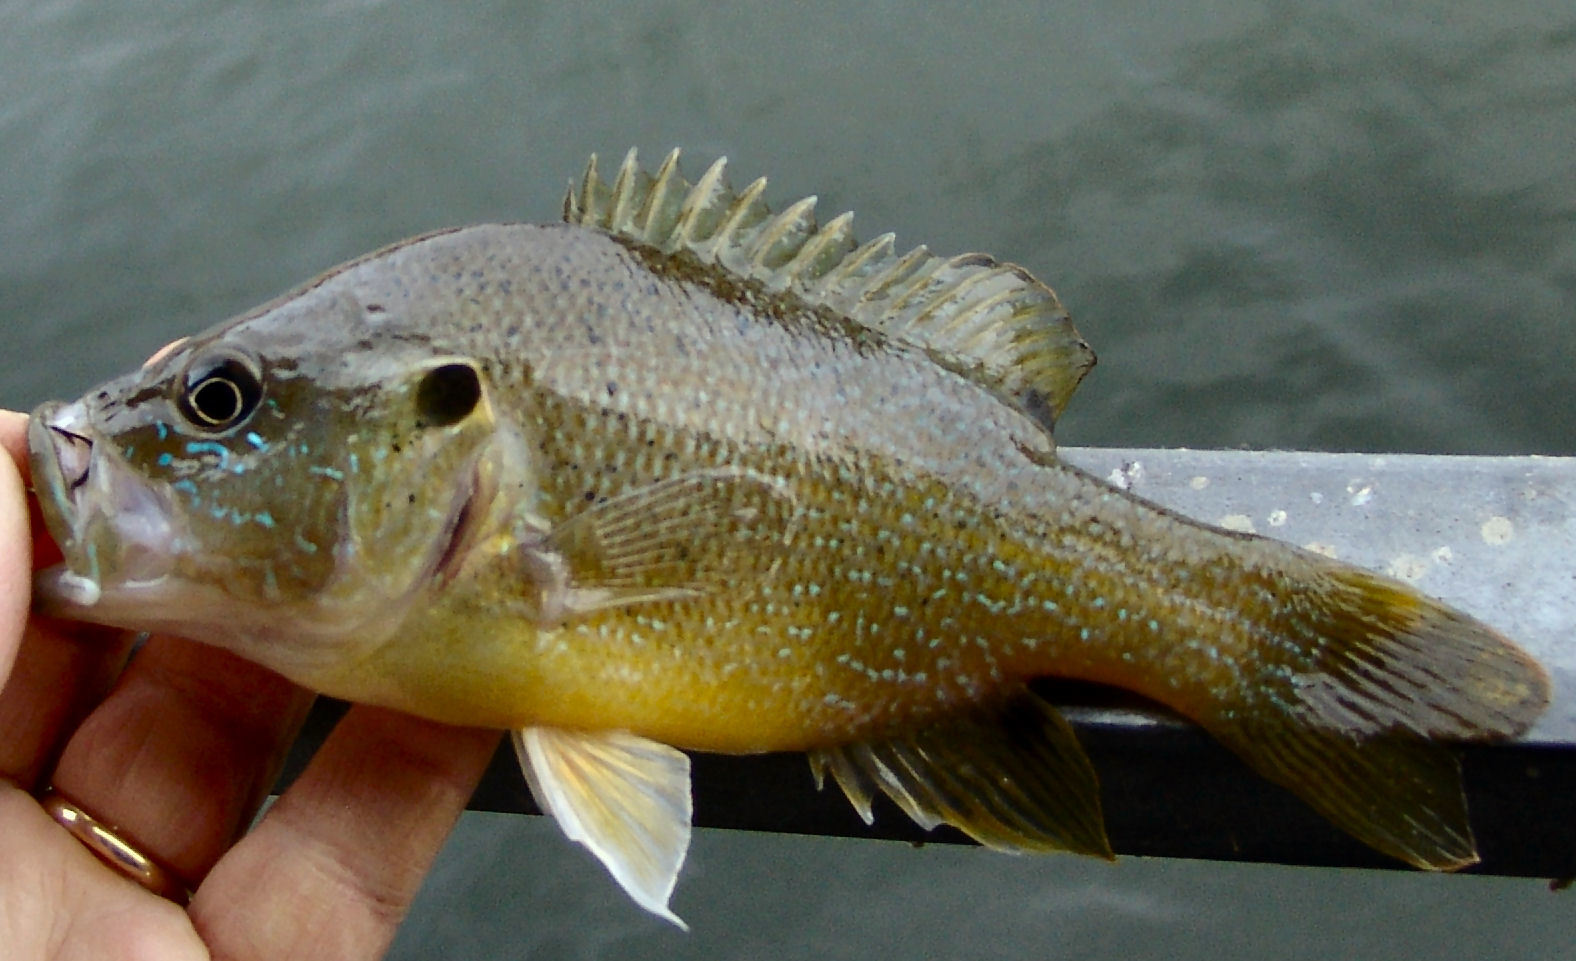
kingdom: Animalia
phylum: Chordata
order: Perciformes
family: Centrarchidae
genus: Lepomis
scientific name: Lepomis cyanellus
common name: Green sunfish
